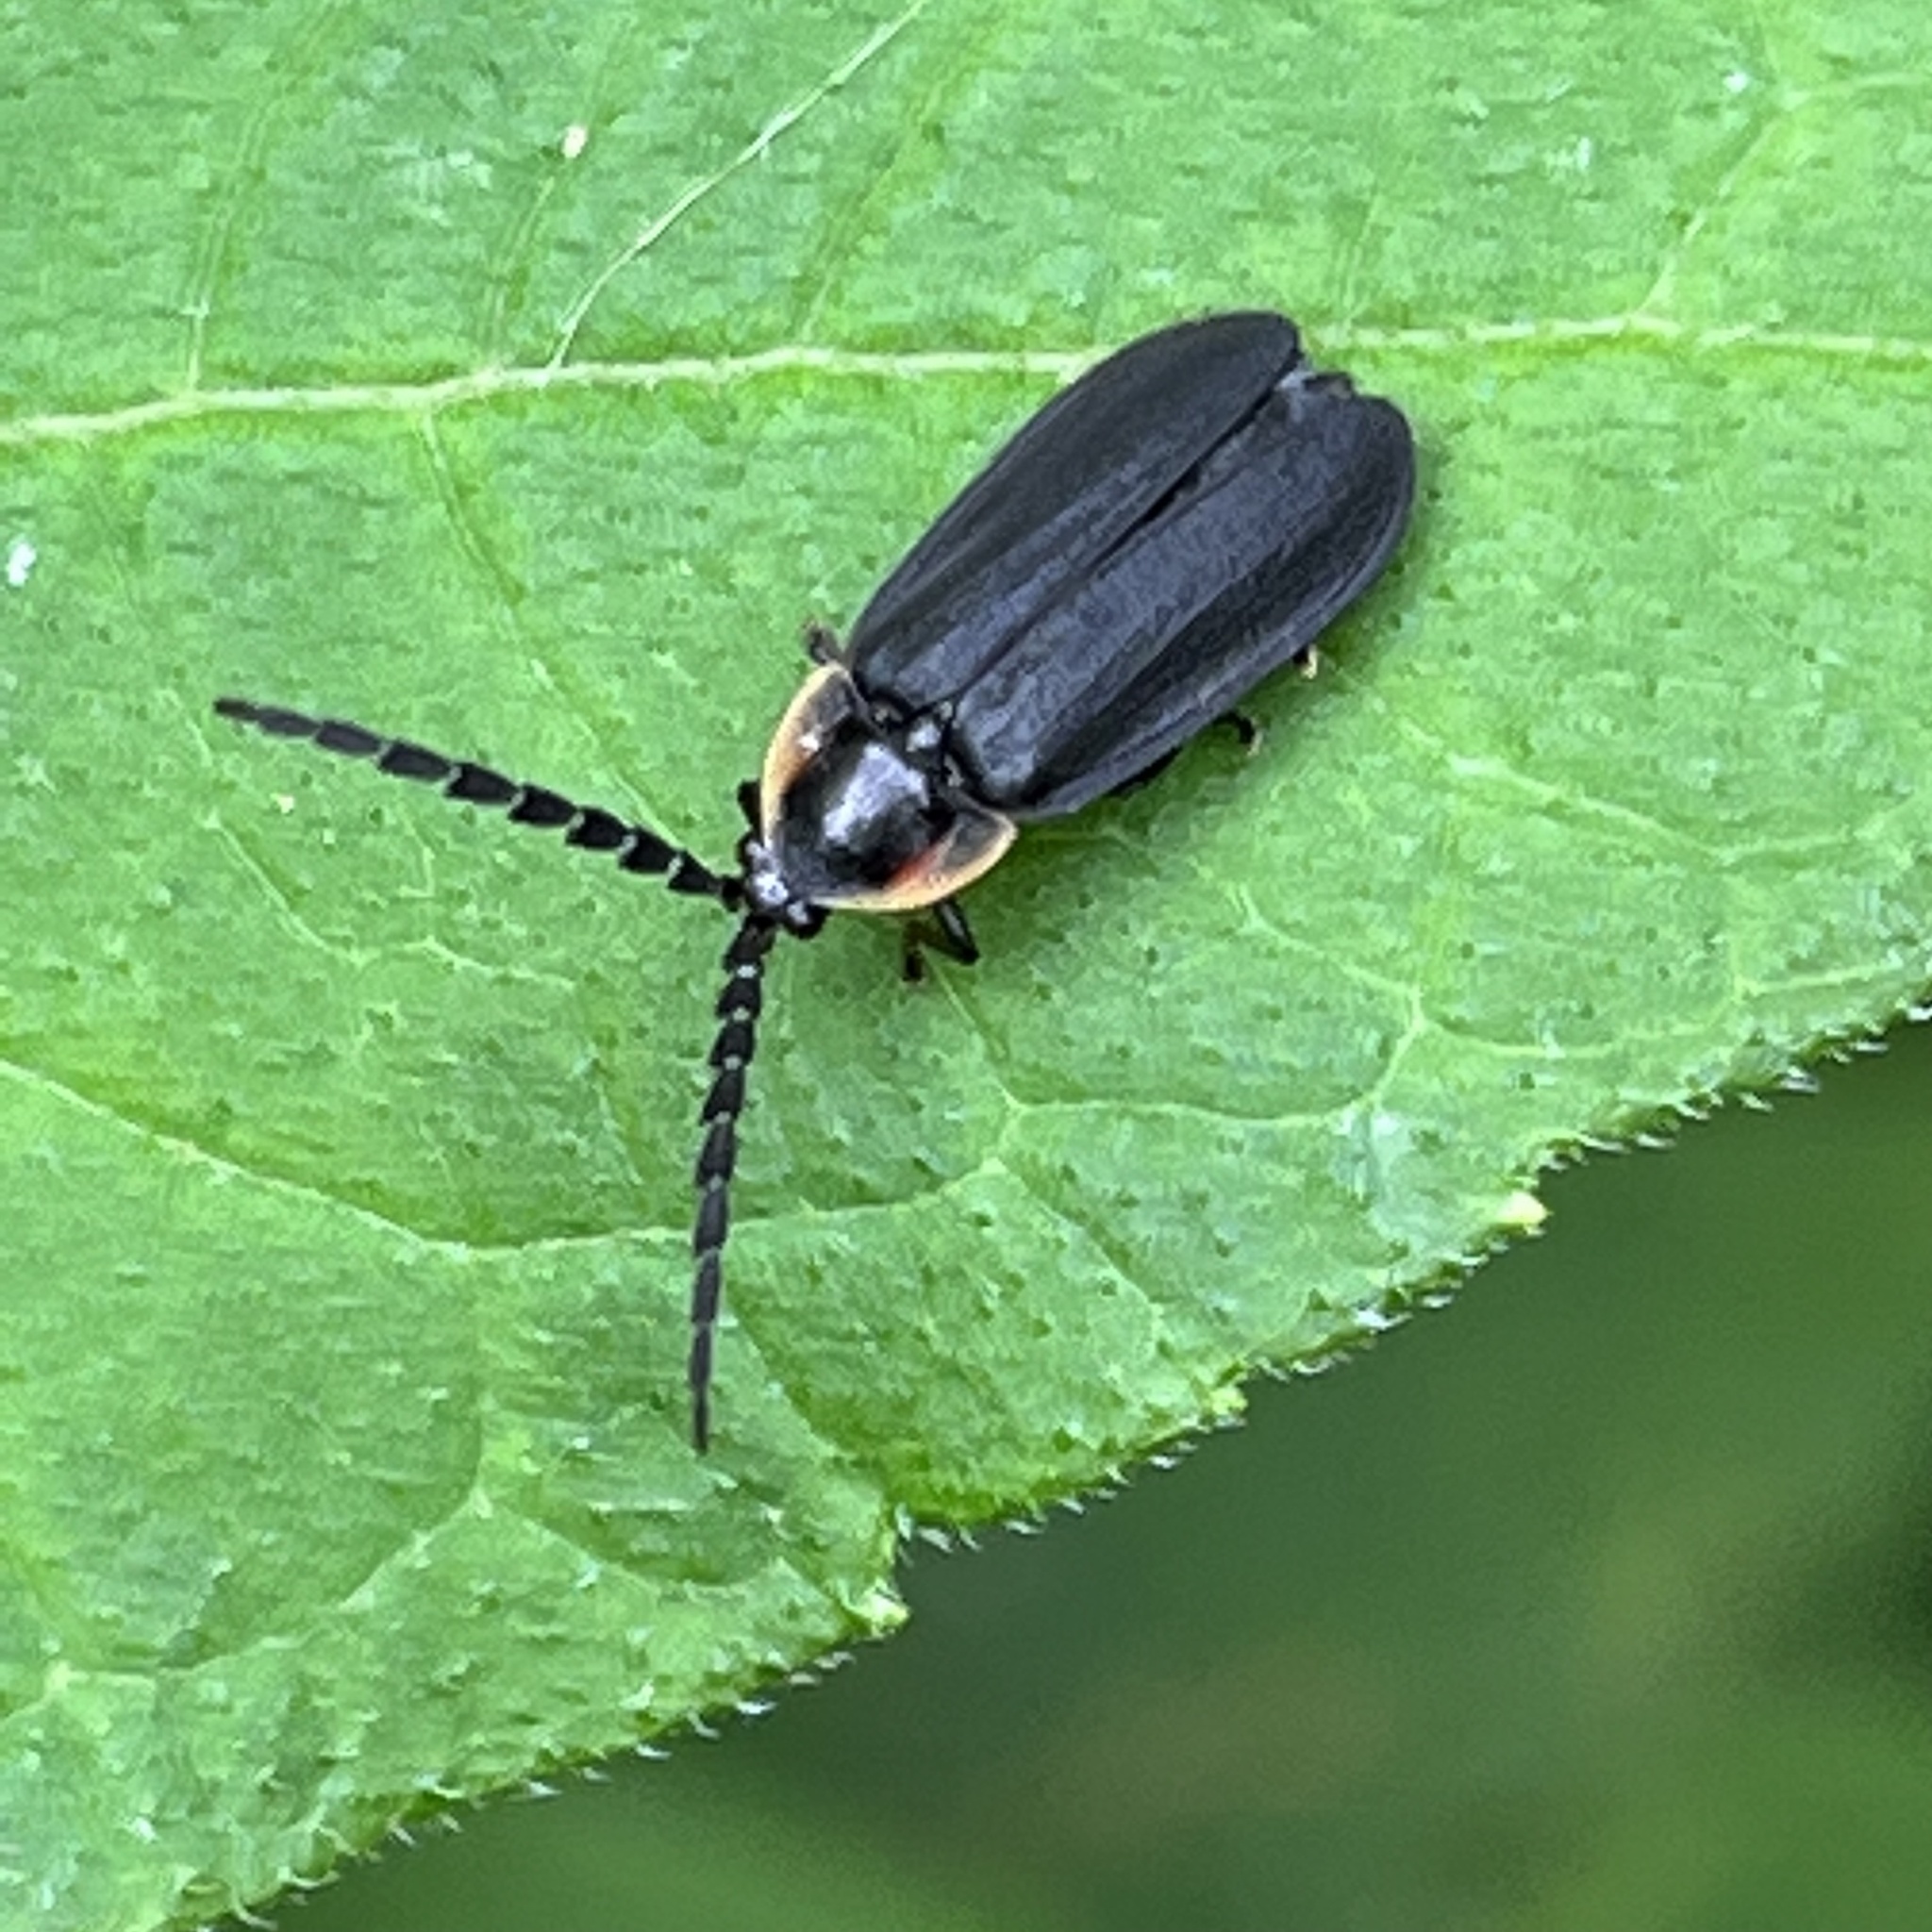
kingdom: Animalia
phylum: Arthropoda
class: Insecta
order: Coleoptera
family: Lampyridae
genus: Lucidota
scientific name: Lucidota atra
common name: Black firefly
